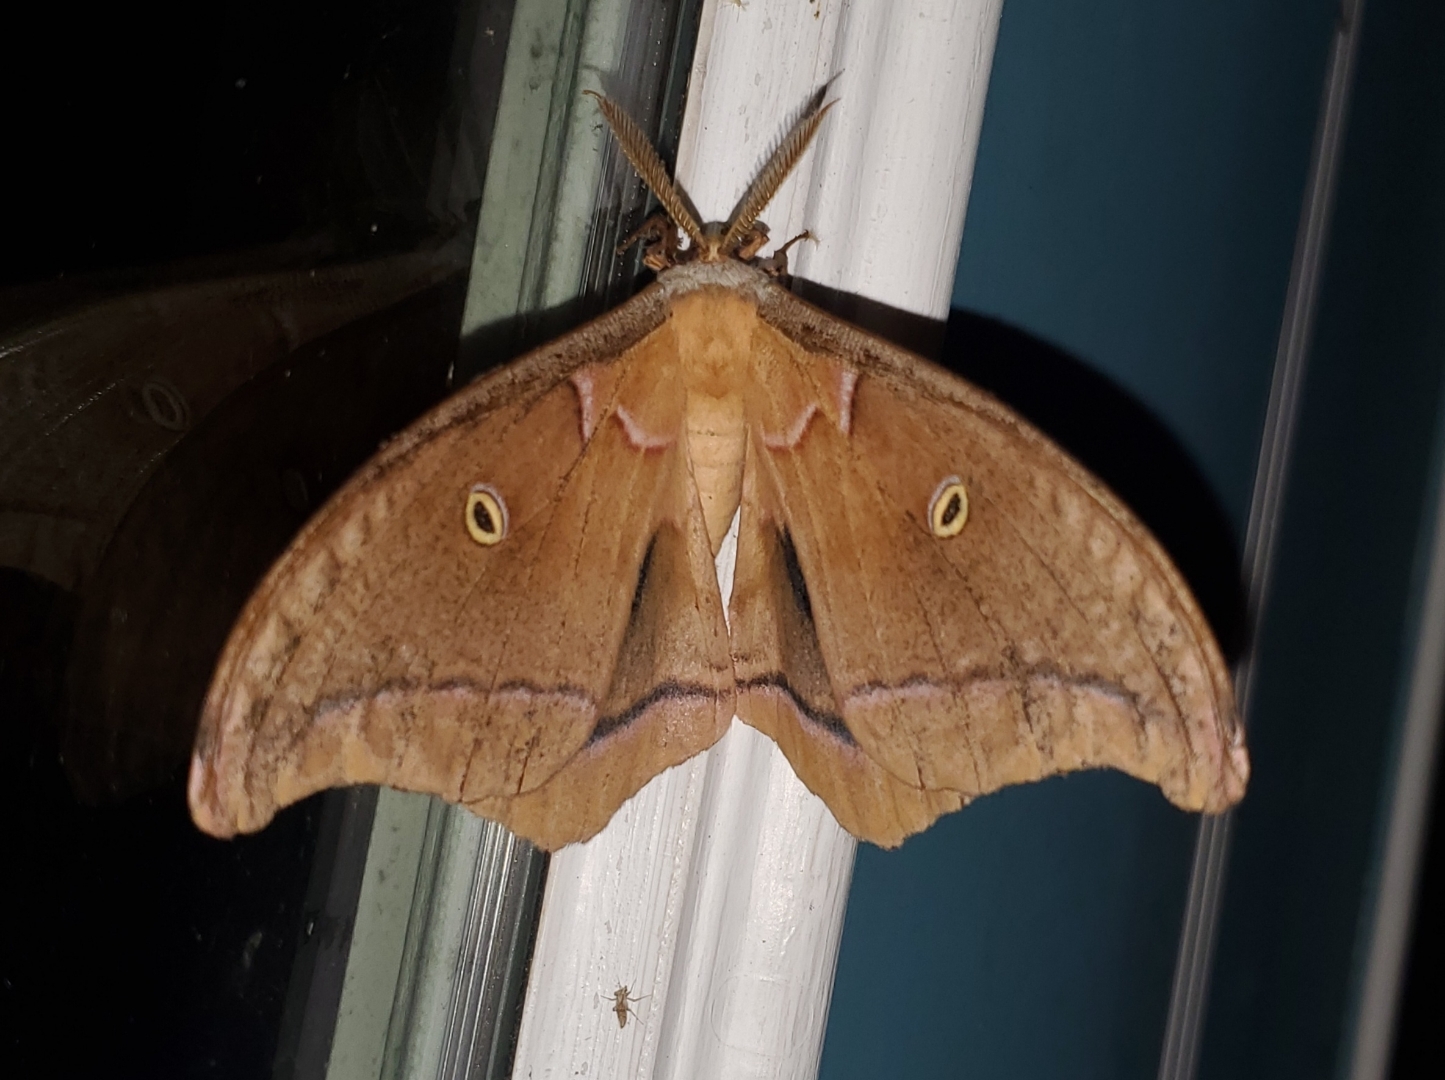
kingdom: Animalia
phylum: Arthropoda
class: Insecta
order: Lepidoptera
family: Saturniidae
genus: Antheraea
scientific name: Antheraea polyphemus
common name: Polyphemus moth
